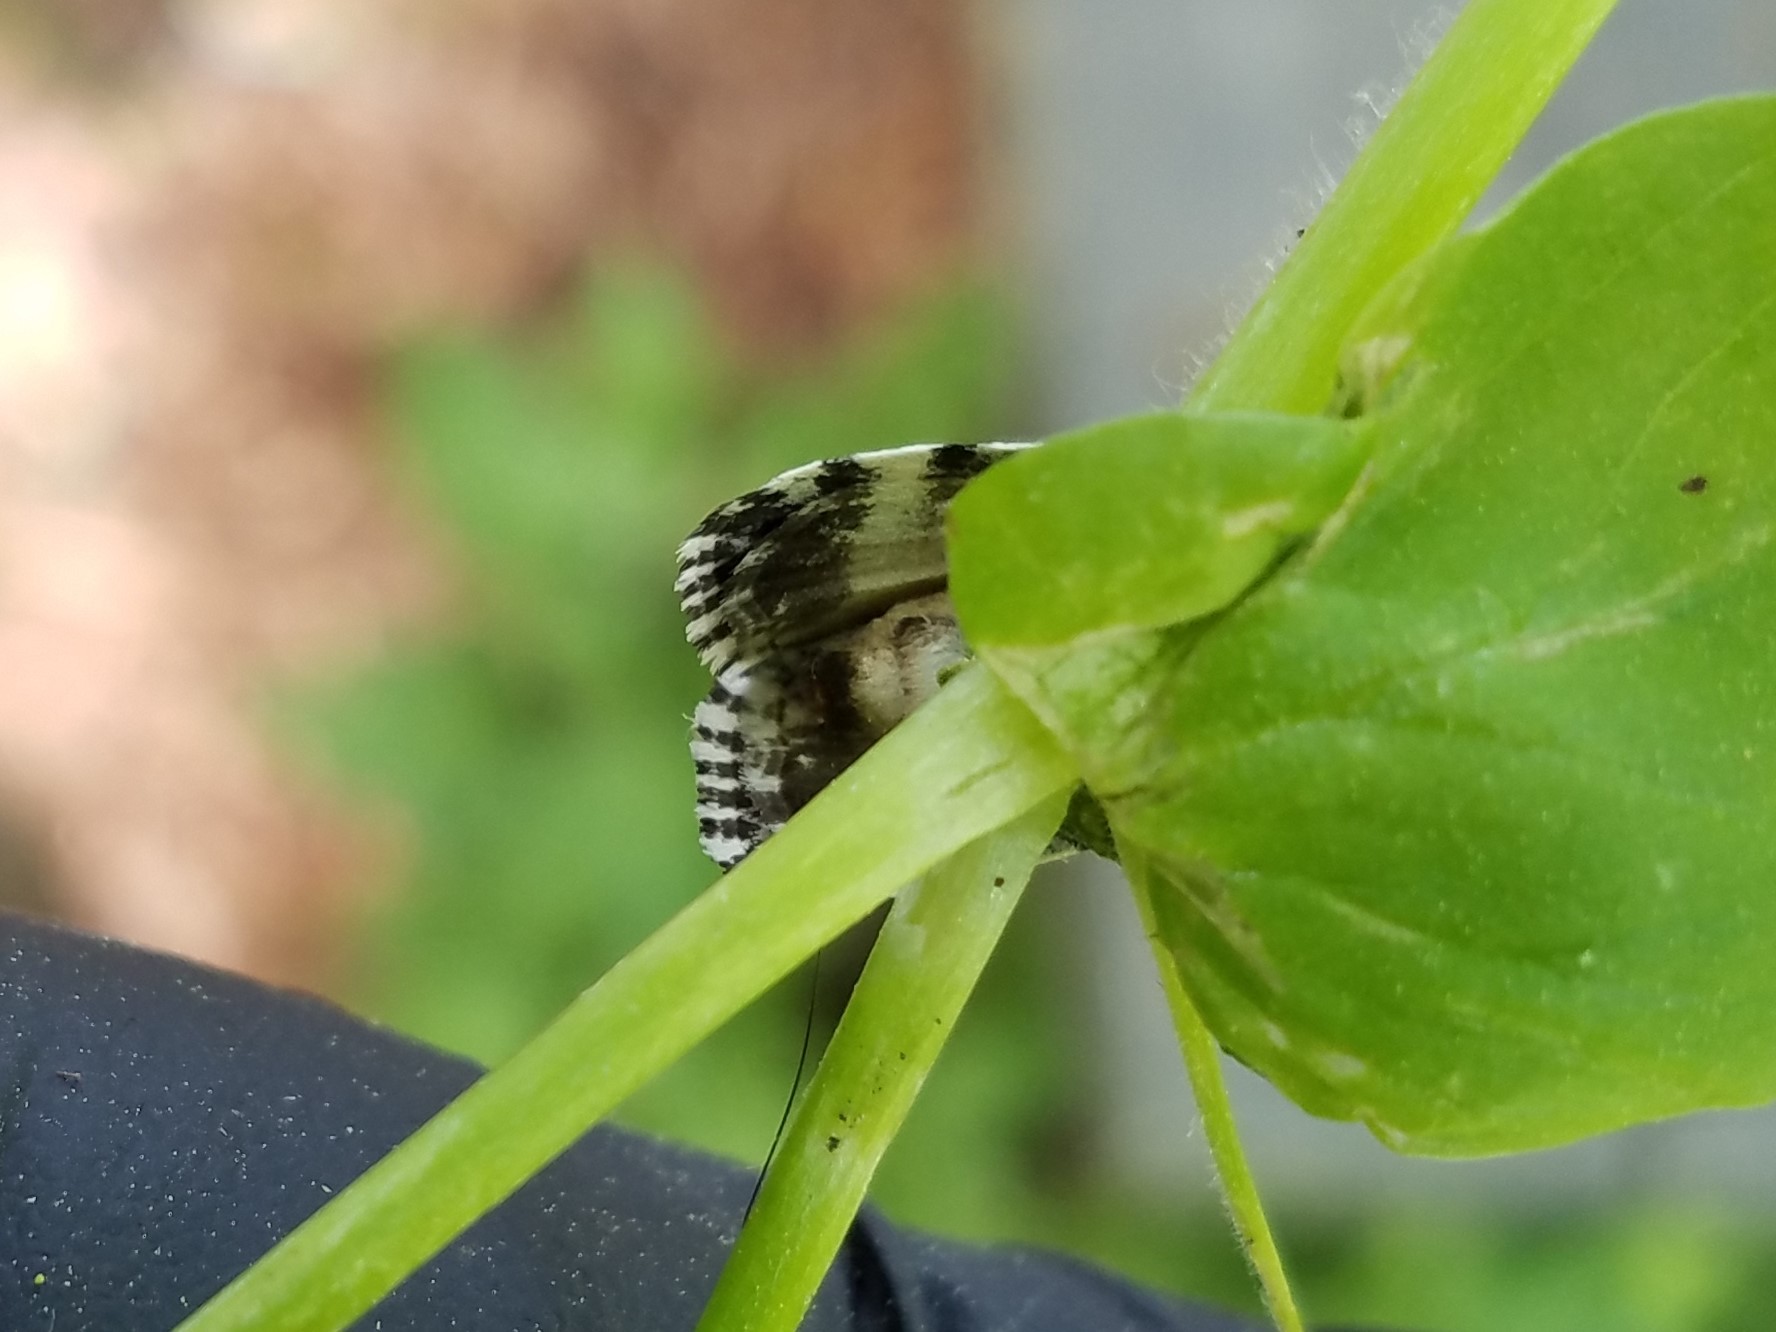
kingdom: Animalia
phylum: Arthropoda
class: Insecta
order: Lepidoptera
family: Noctuidae
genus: Polygrammate
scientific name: Polygrammate hebraeicum
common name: Hebrew moth
